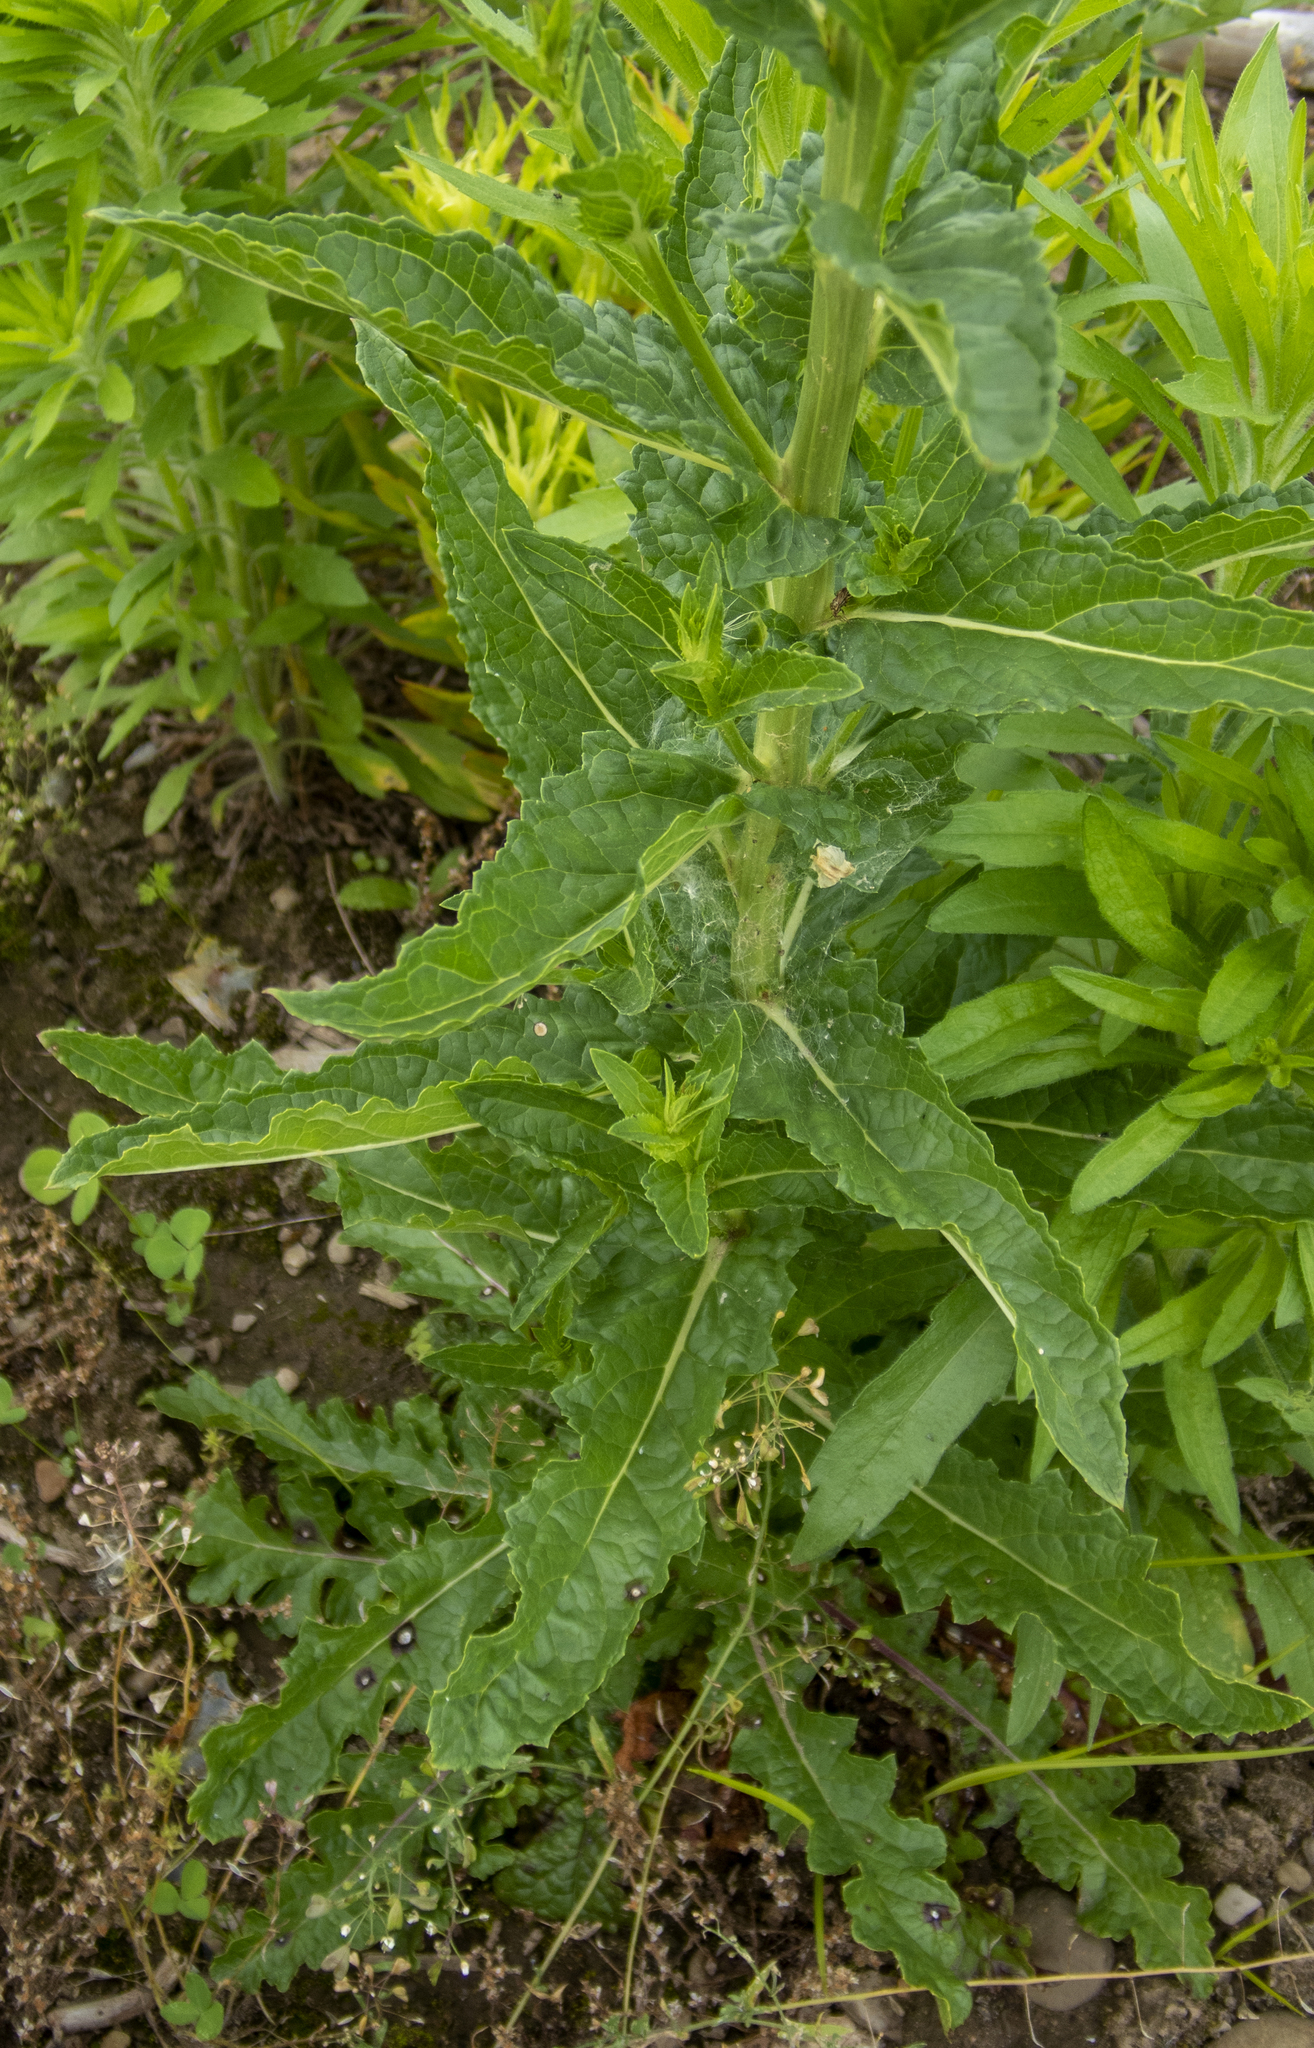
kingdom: Plantae
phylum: Tracheophyta
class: Magnoliopsida
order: Lamiales
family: Scrophulariaceae
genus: Verbascum
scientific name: Verbascum blattaria
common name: Moth mullein
